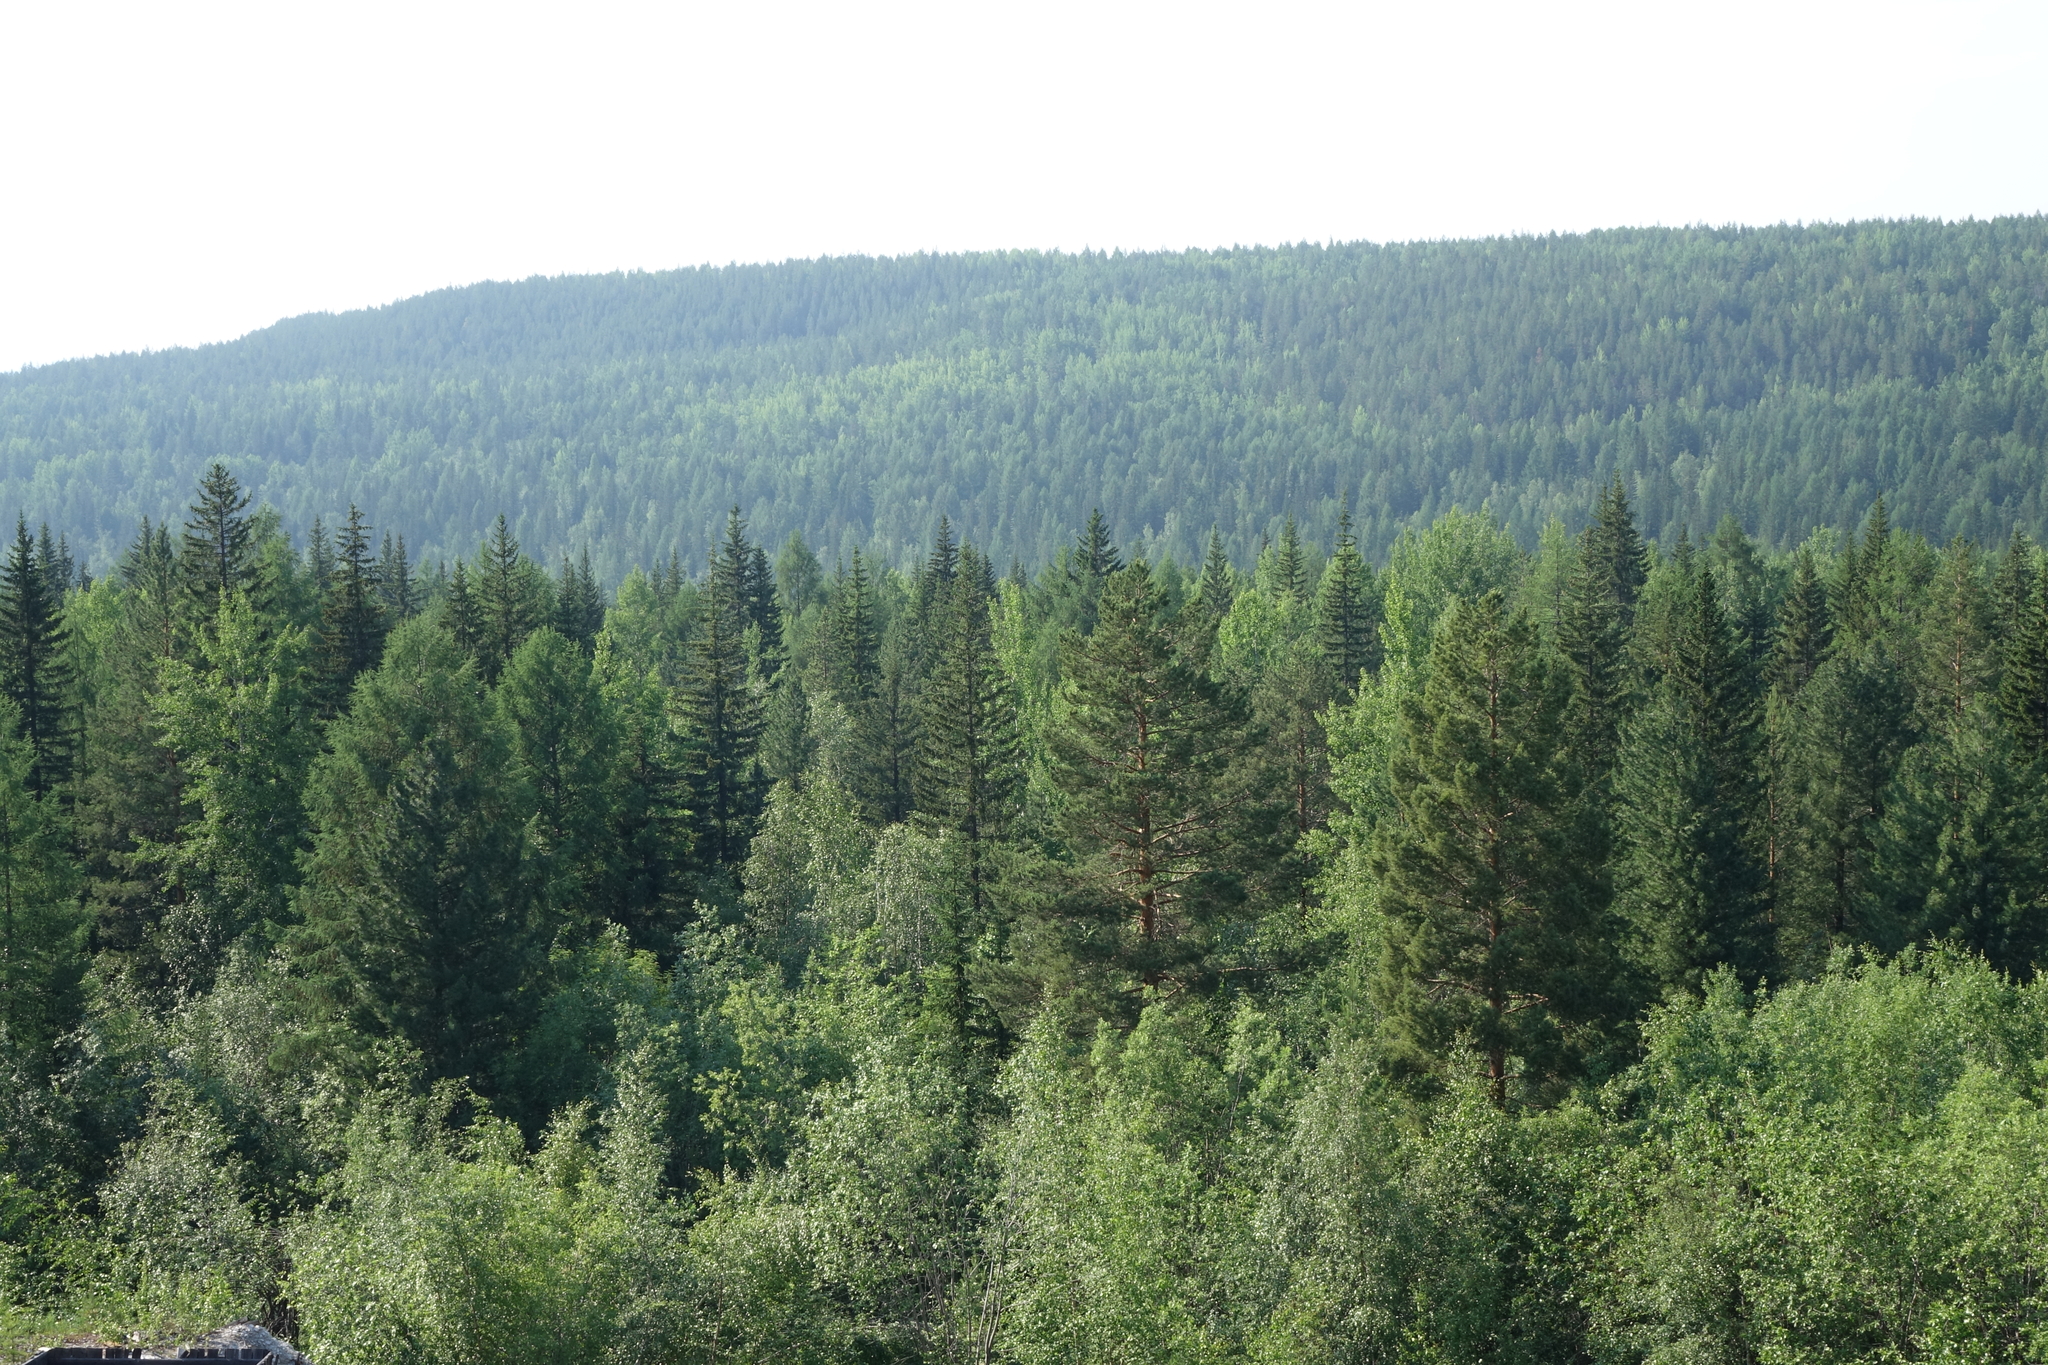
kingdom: Plantae
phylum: Tracheophyta
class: Pinopsida
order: Pinales
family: Pinaceae
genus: Pinus
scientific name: Pinus sylvestris
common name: Scots pine
